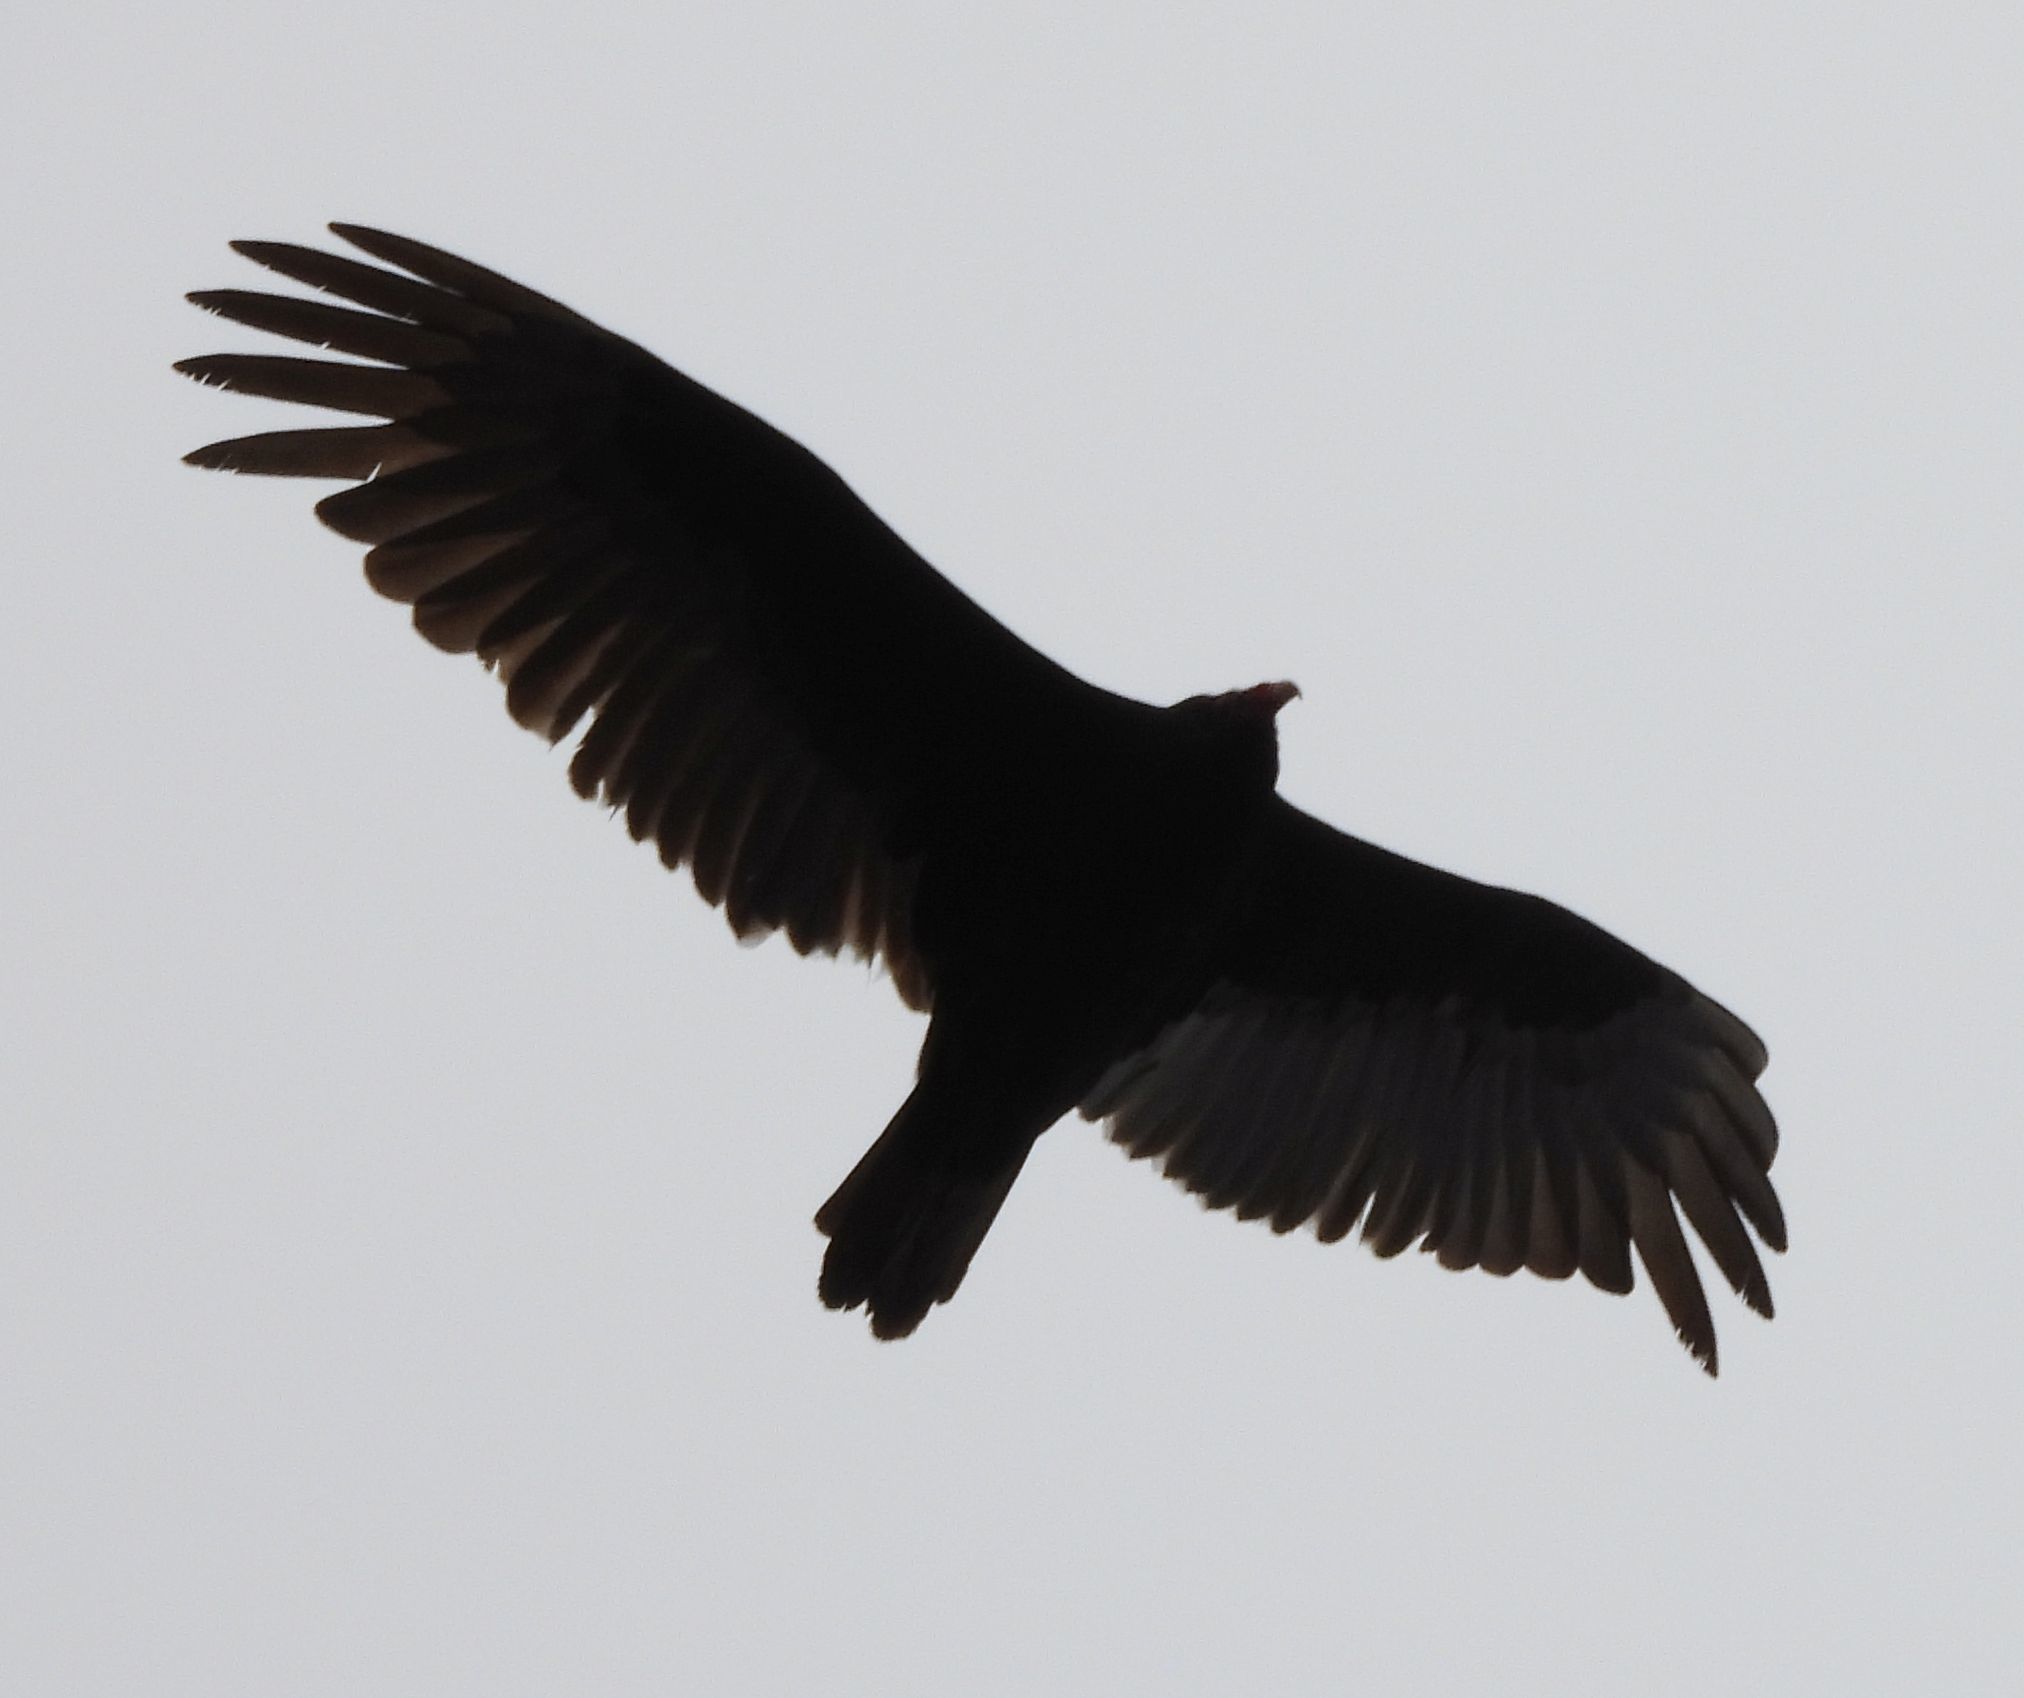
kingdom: Animalia
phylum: Chordata
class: Aves
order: Accipitriformes
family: Cathartidae
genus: Cathartes
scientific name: Cathartes aura
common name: Turkey vulture
